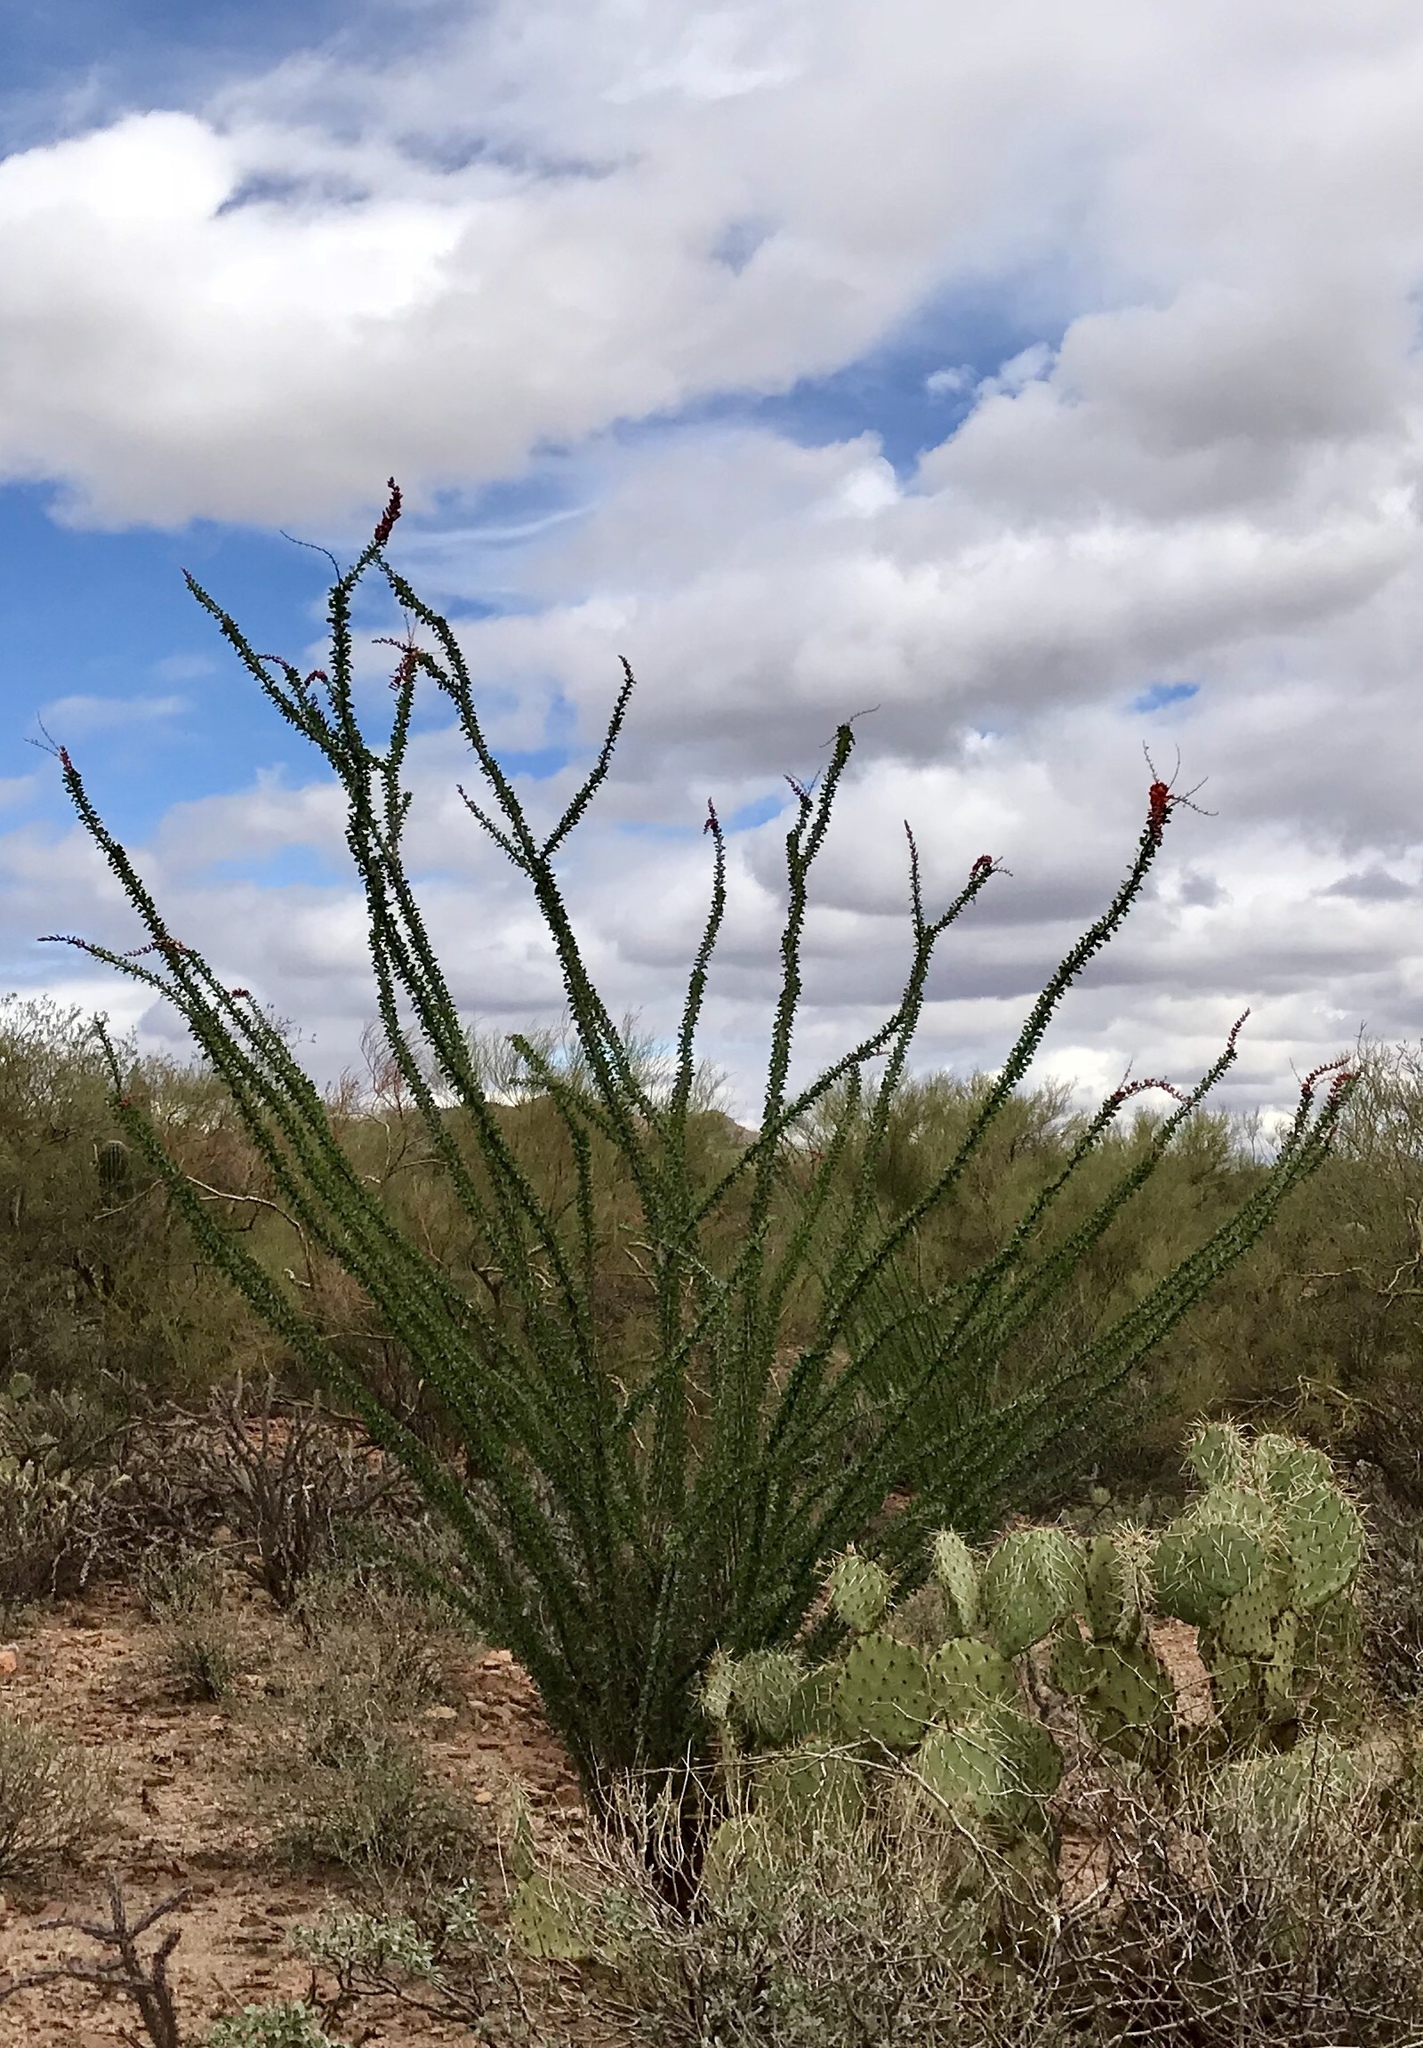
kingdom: Plantae
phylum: Tracheophyta
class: Magnoliopsida
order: Ericales
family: Fouquieriaceae
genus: Fouquieria
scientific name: Fouquieria splendens
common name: Vine-cactus
